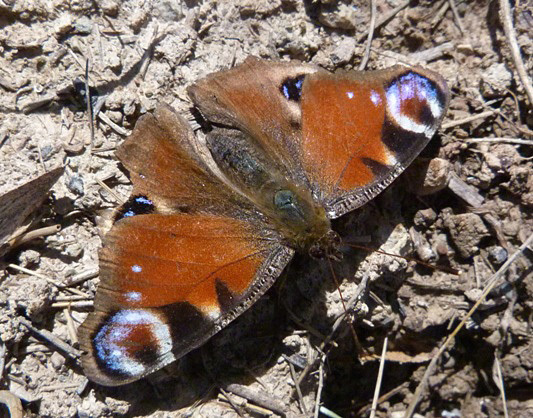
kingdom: Animalia
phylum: Arthropoda
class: Insecta
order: Lepidoptera
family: Nymphalidae
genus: Aglais
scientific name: Aglais io
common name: Peacock
